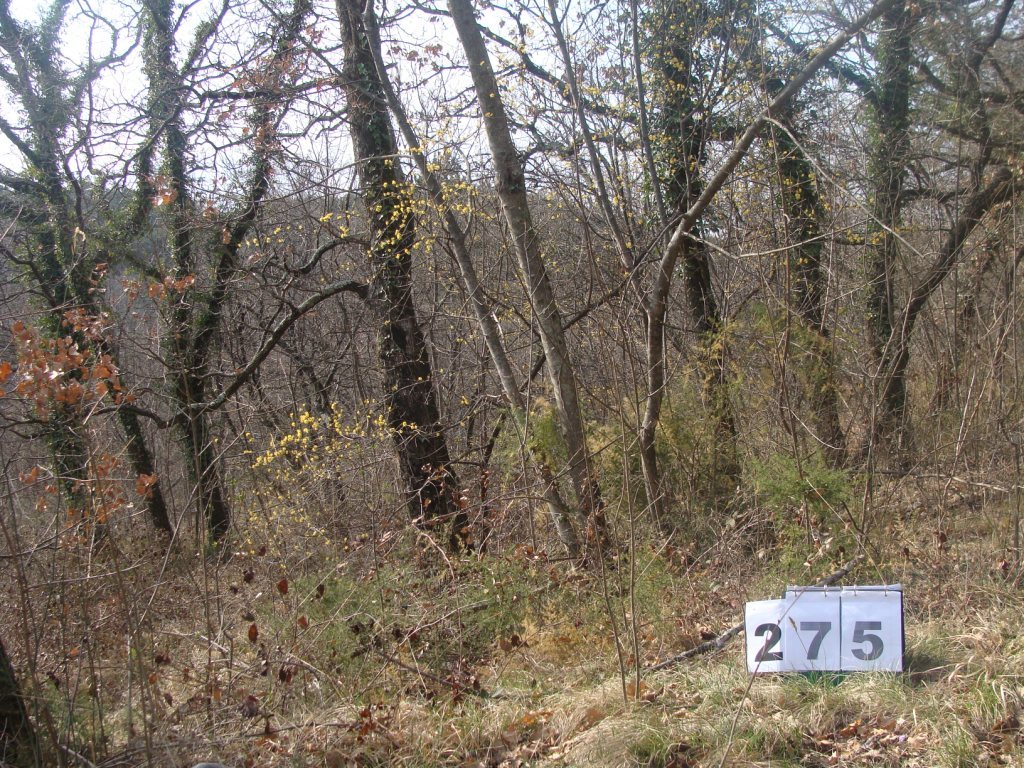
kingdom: Plantae
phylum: Tracheophyta
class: Magnoliopsida
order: Cornales
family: Cornaceae
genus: Cornus
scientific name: Cornus mas
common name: Cornelian-cherry
